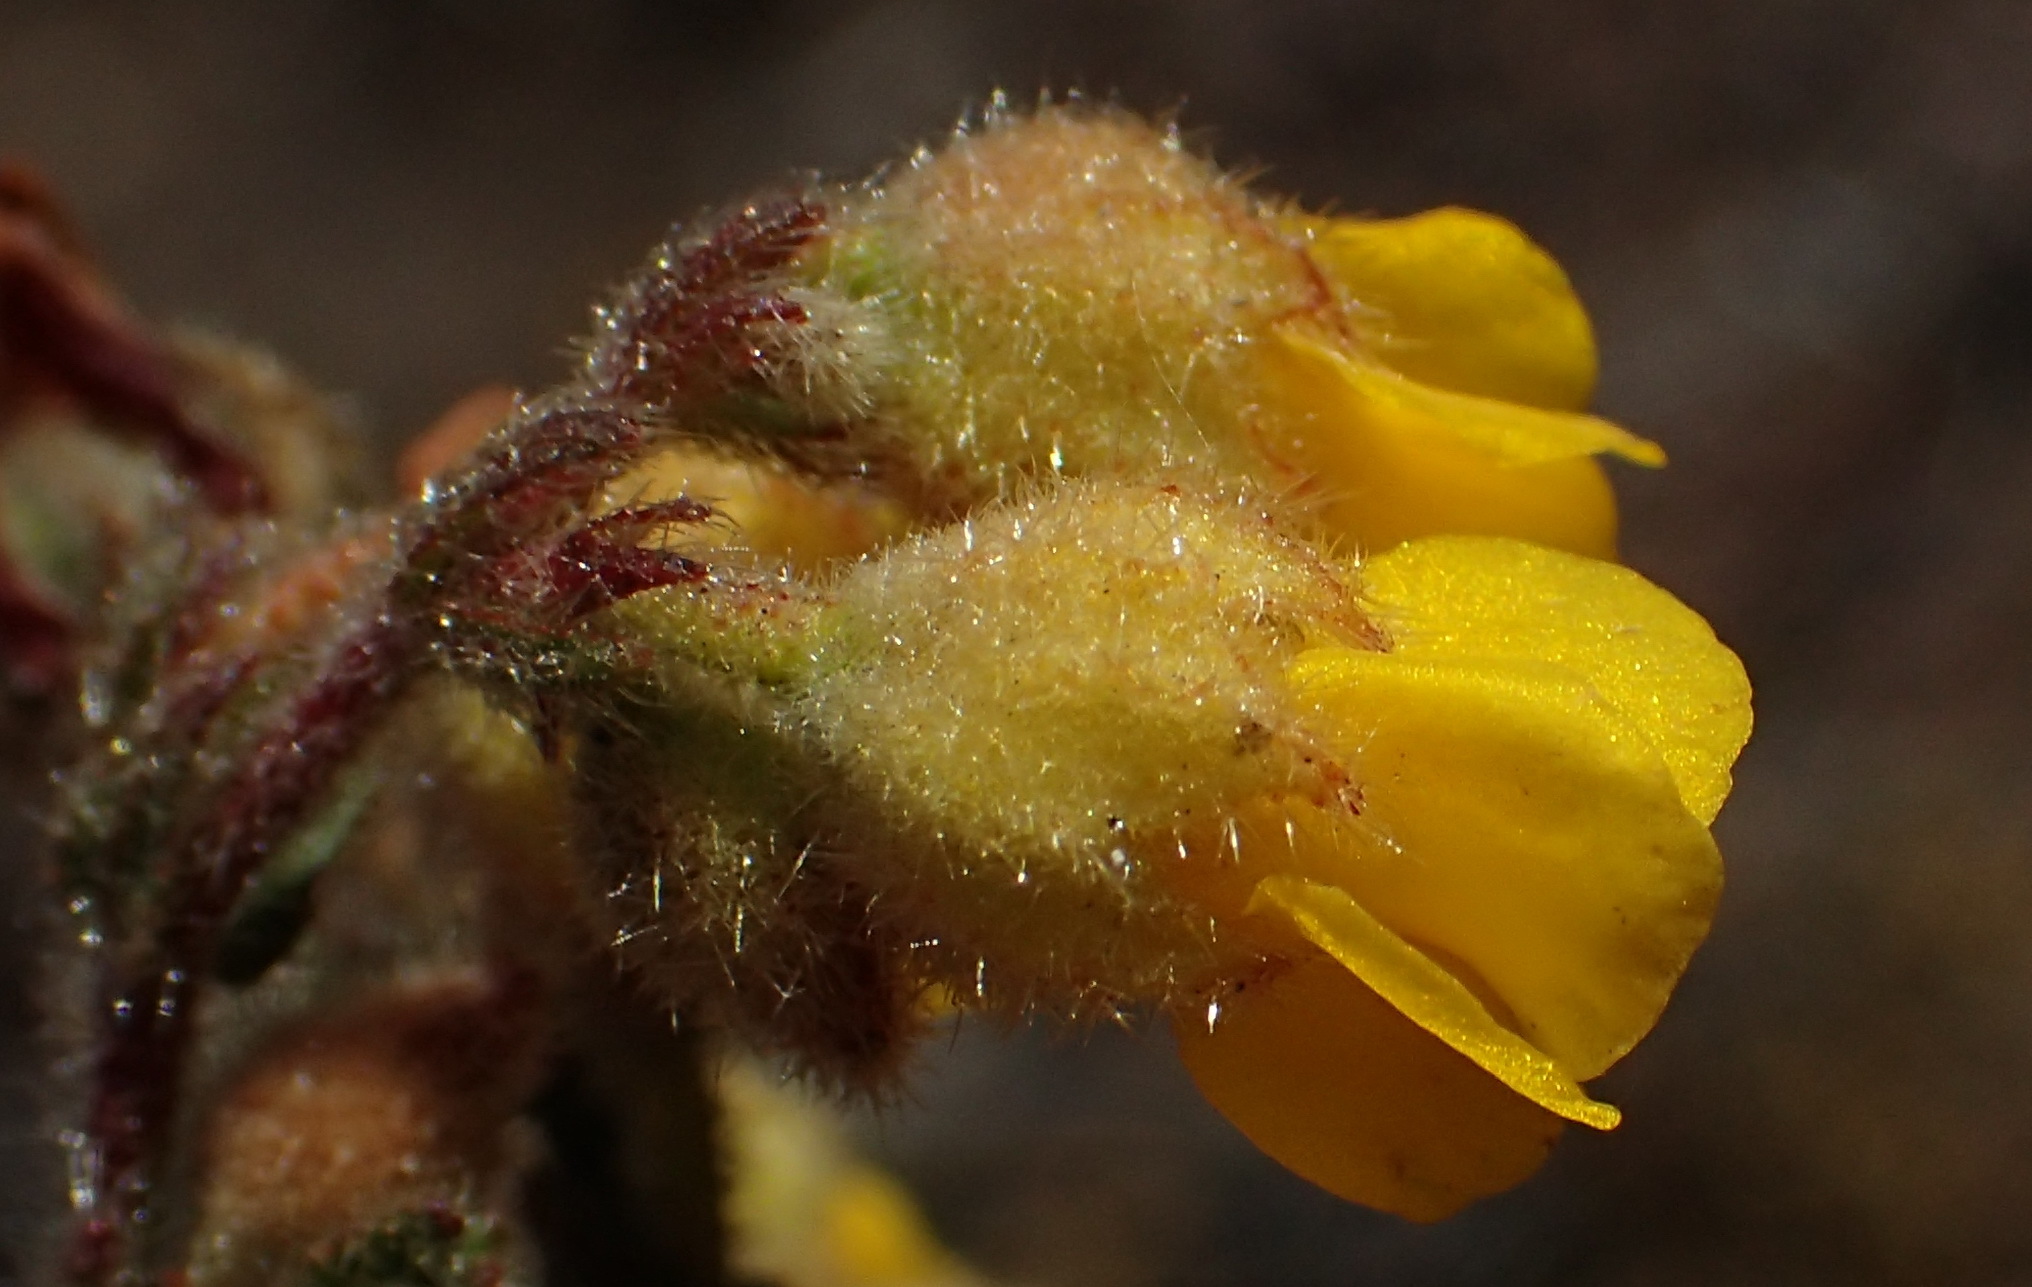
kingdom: Plantae
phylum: Tracheophyta
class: Magnoliopsida
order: Malvales
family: Malvaceae
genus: Hermannia
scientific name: Hermannia stipulacea
